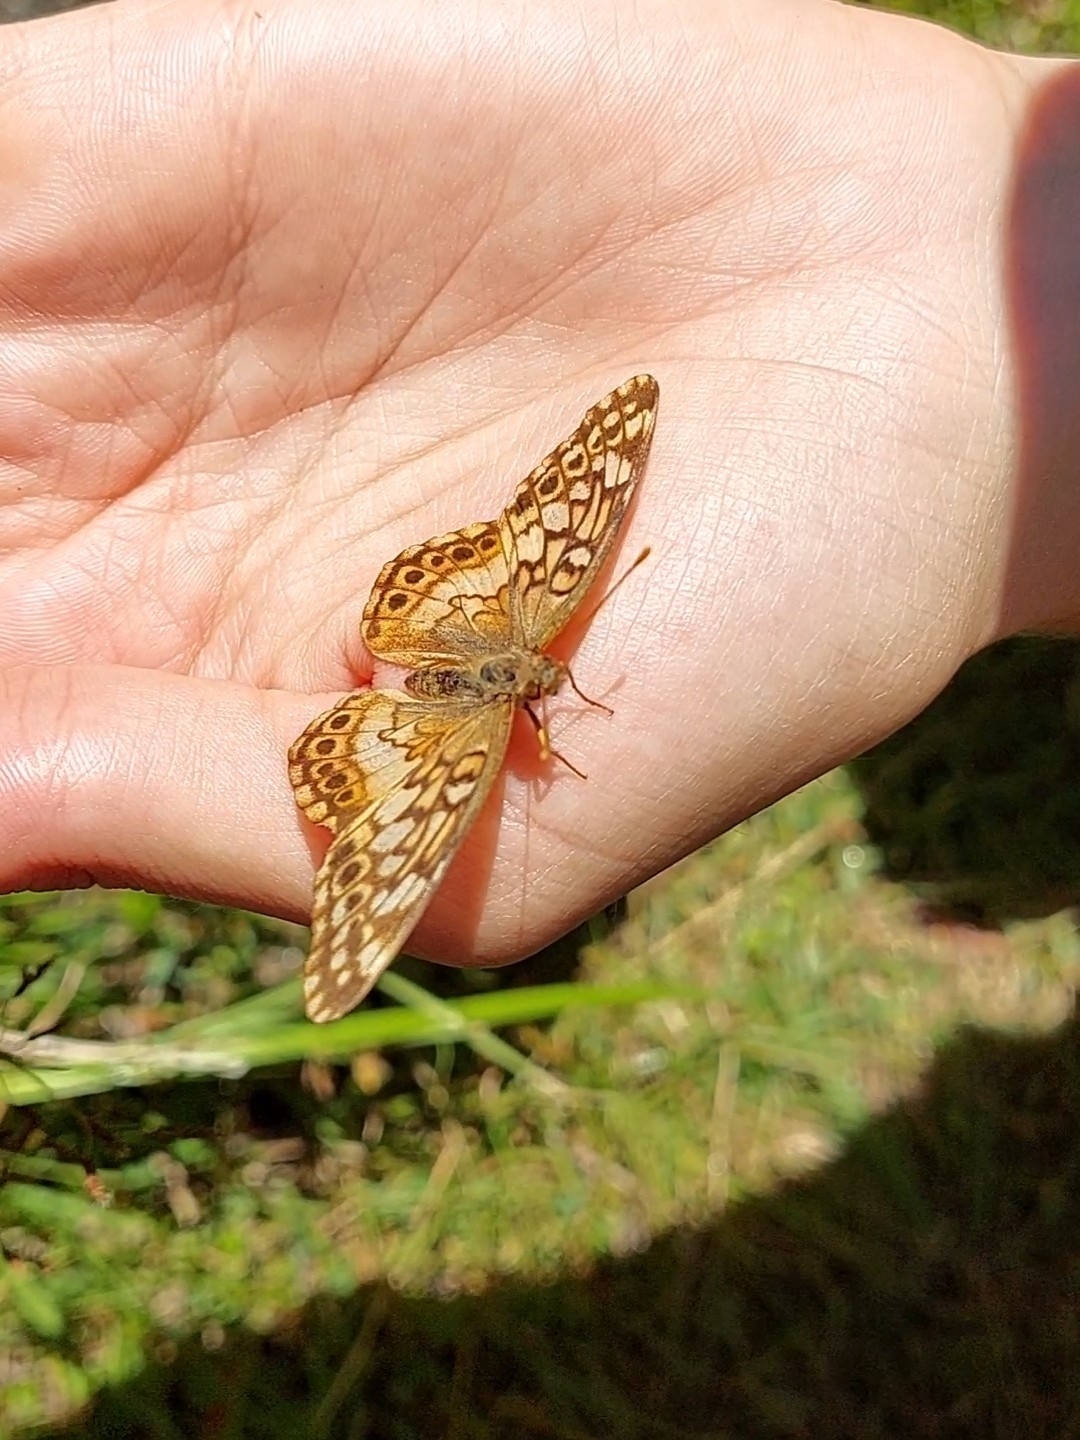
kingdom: Animalia
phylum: Arthropoda
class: Insecta
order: Lepidoptera
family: Nymphalidae
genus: Euptoieta
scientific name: Euptoieta hortensia
